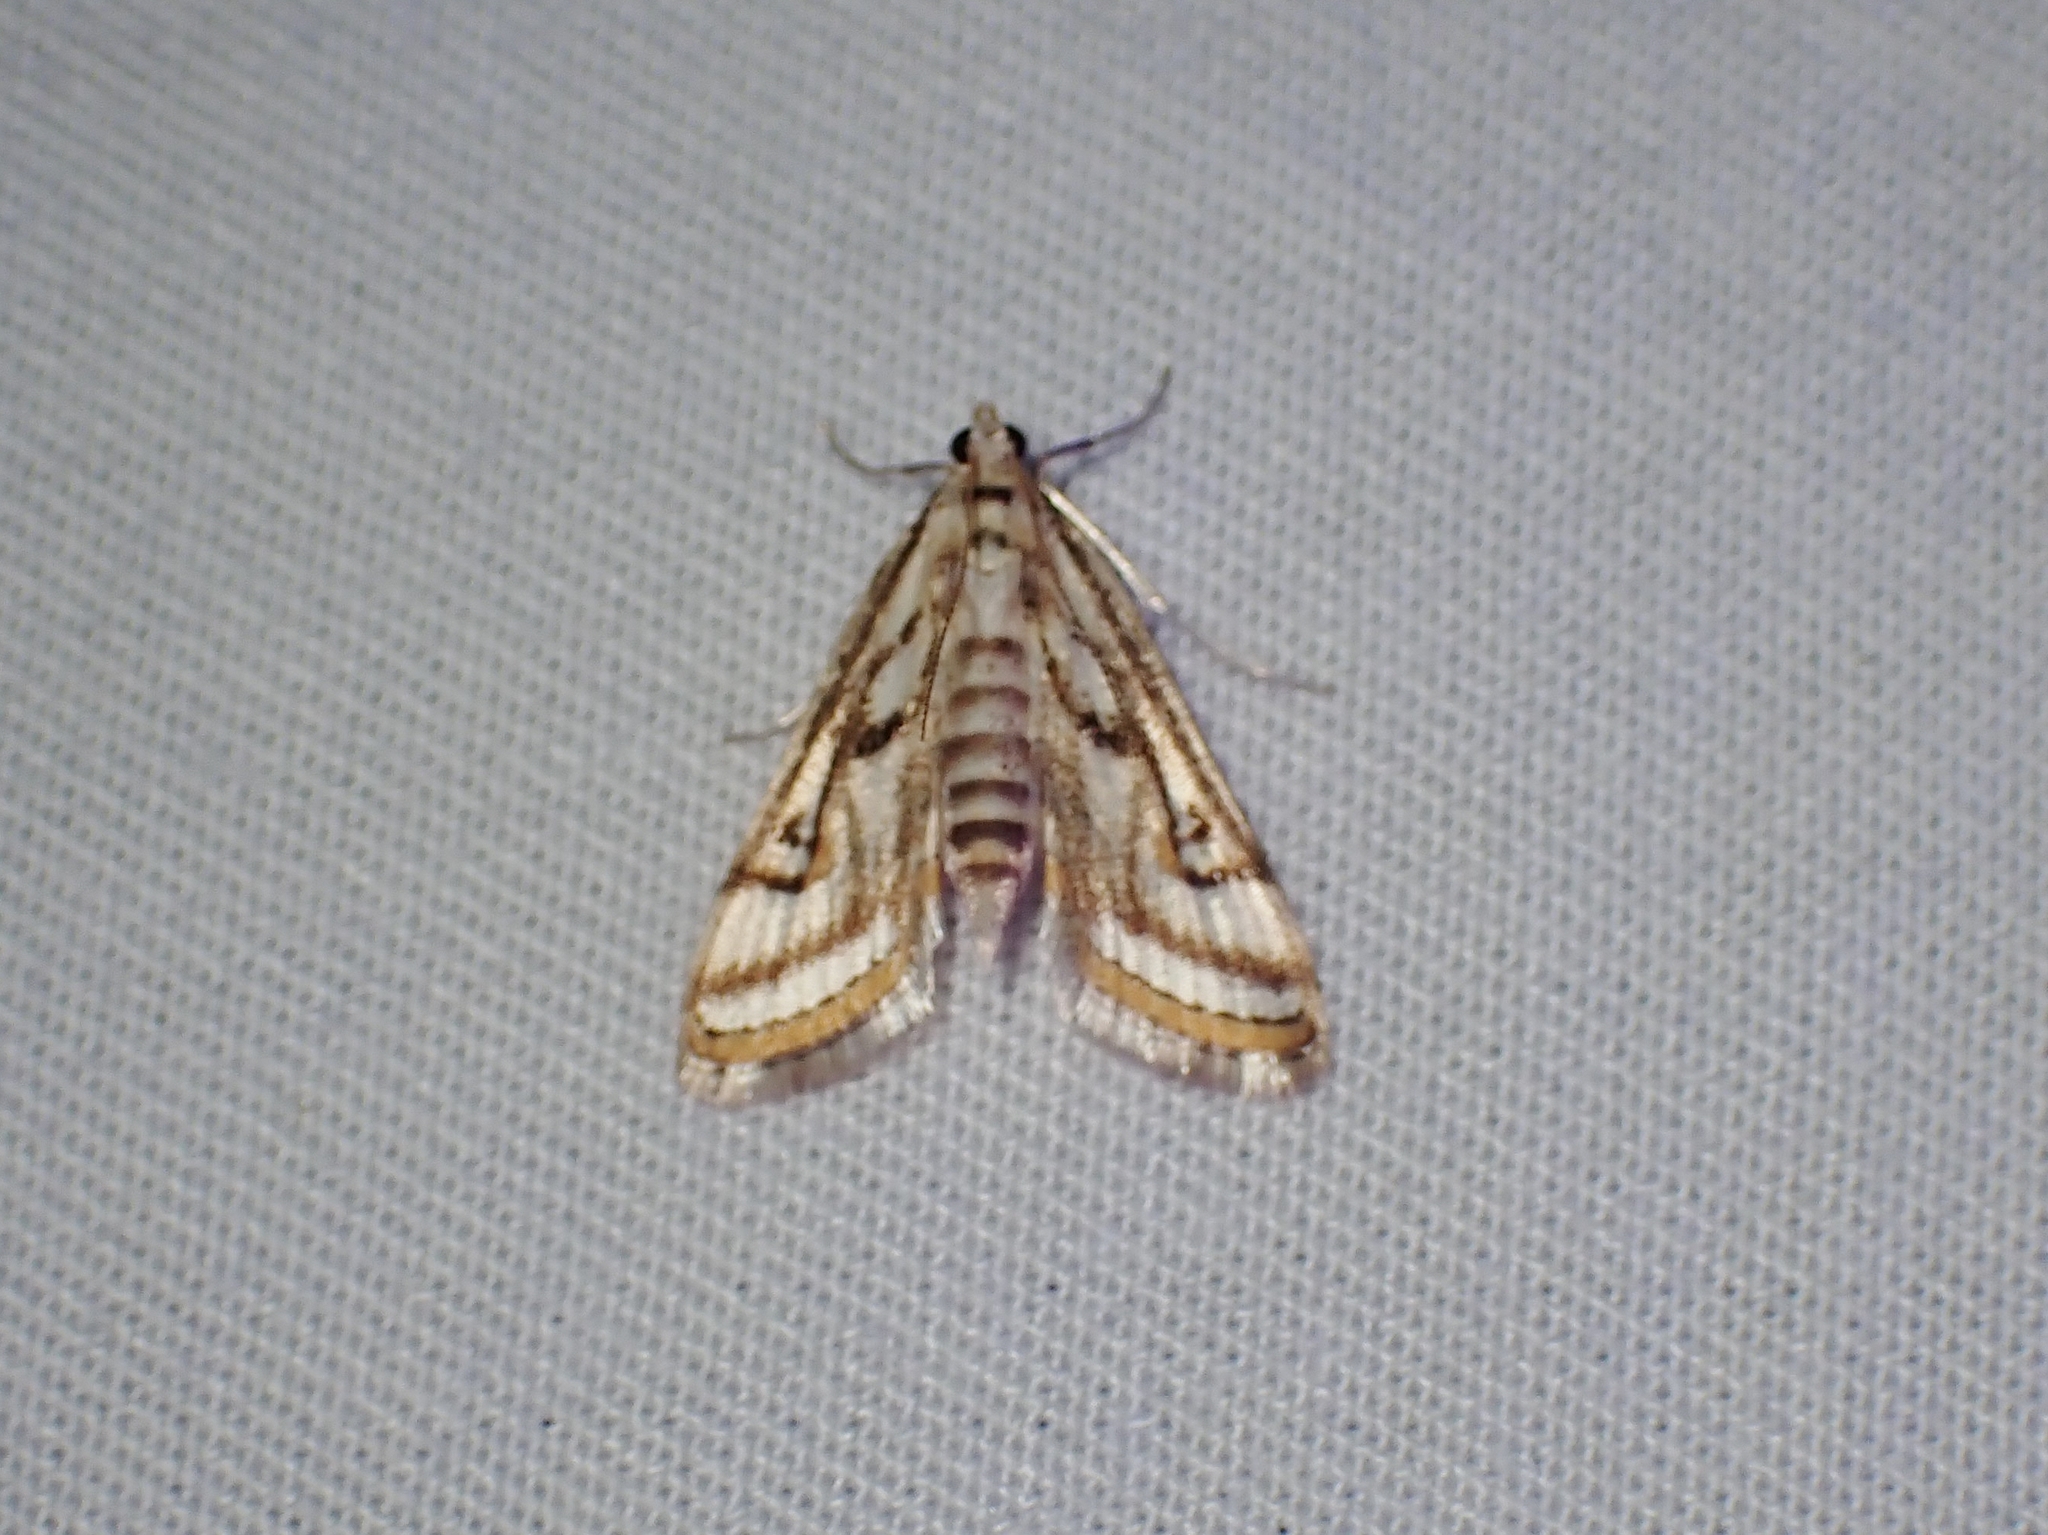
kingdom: Animalia
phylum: Arthropoda
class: Insecta
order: Lepidoptera
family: Crambidae
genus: Parapoynx
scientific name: Parapoynx badiusalis
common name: Chestnut-marked pondweed moth
